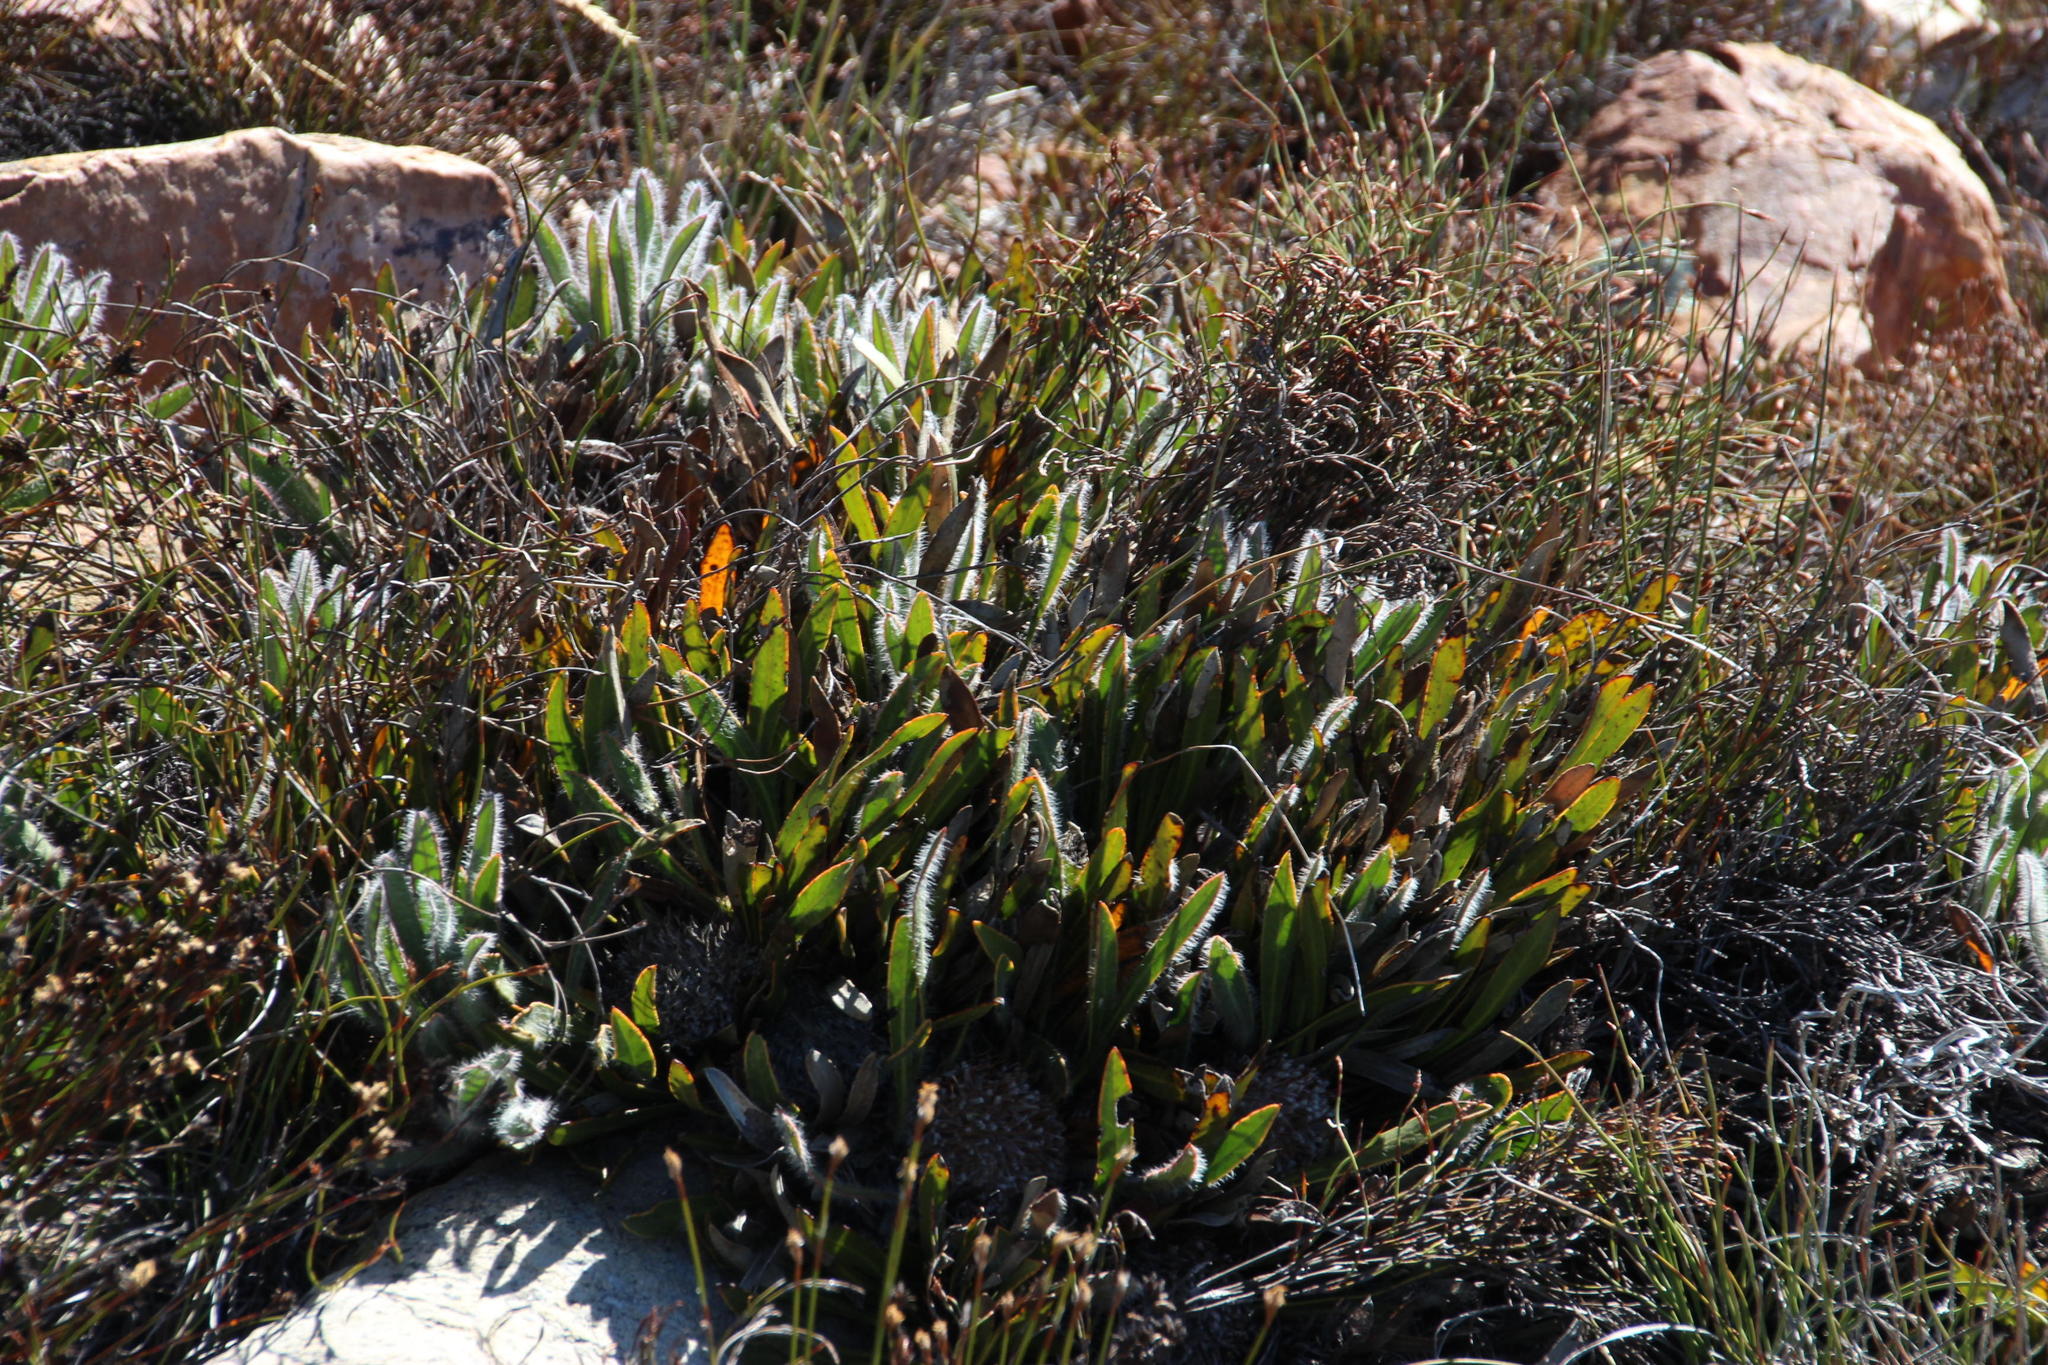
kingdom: Plantae
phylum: Tracheophyta
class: Magnoliopsida
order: Proteales
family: Proteaceae
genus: Protea
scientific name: Protea scabriuscula
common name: Hoary sugarbush
